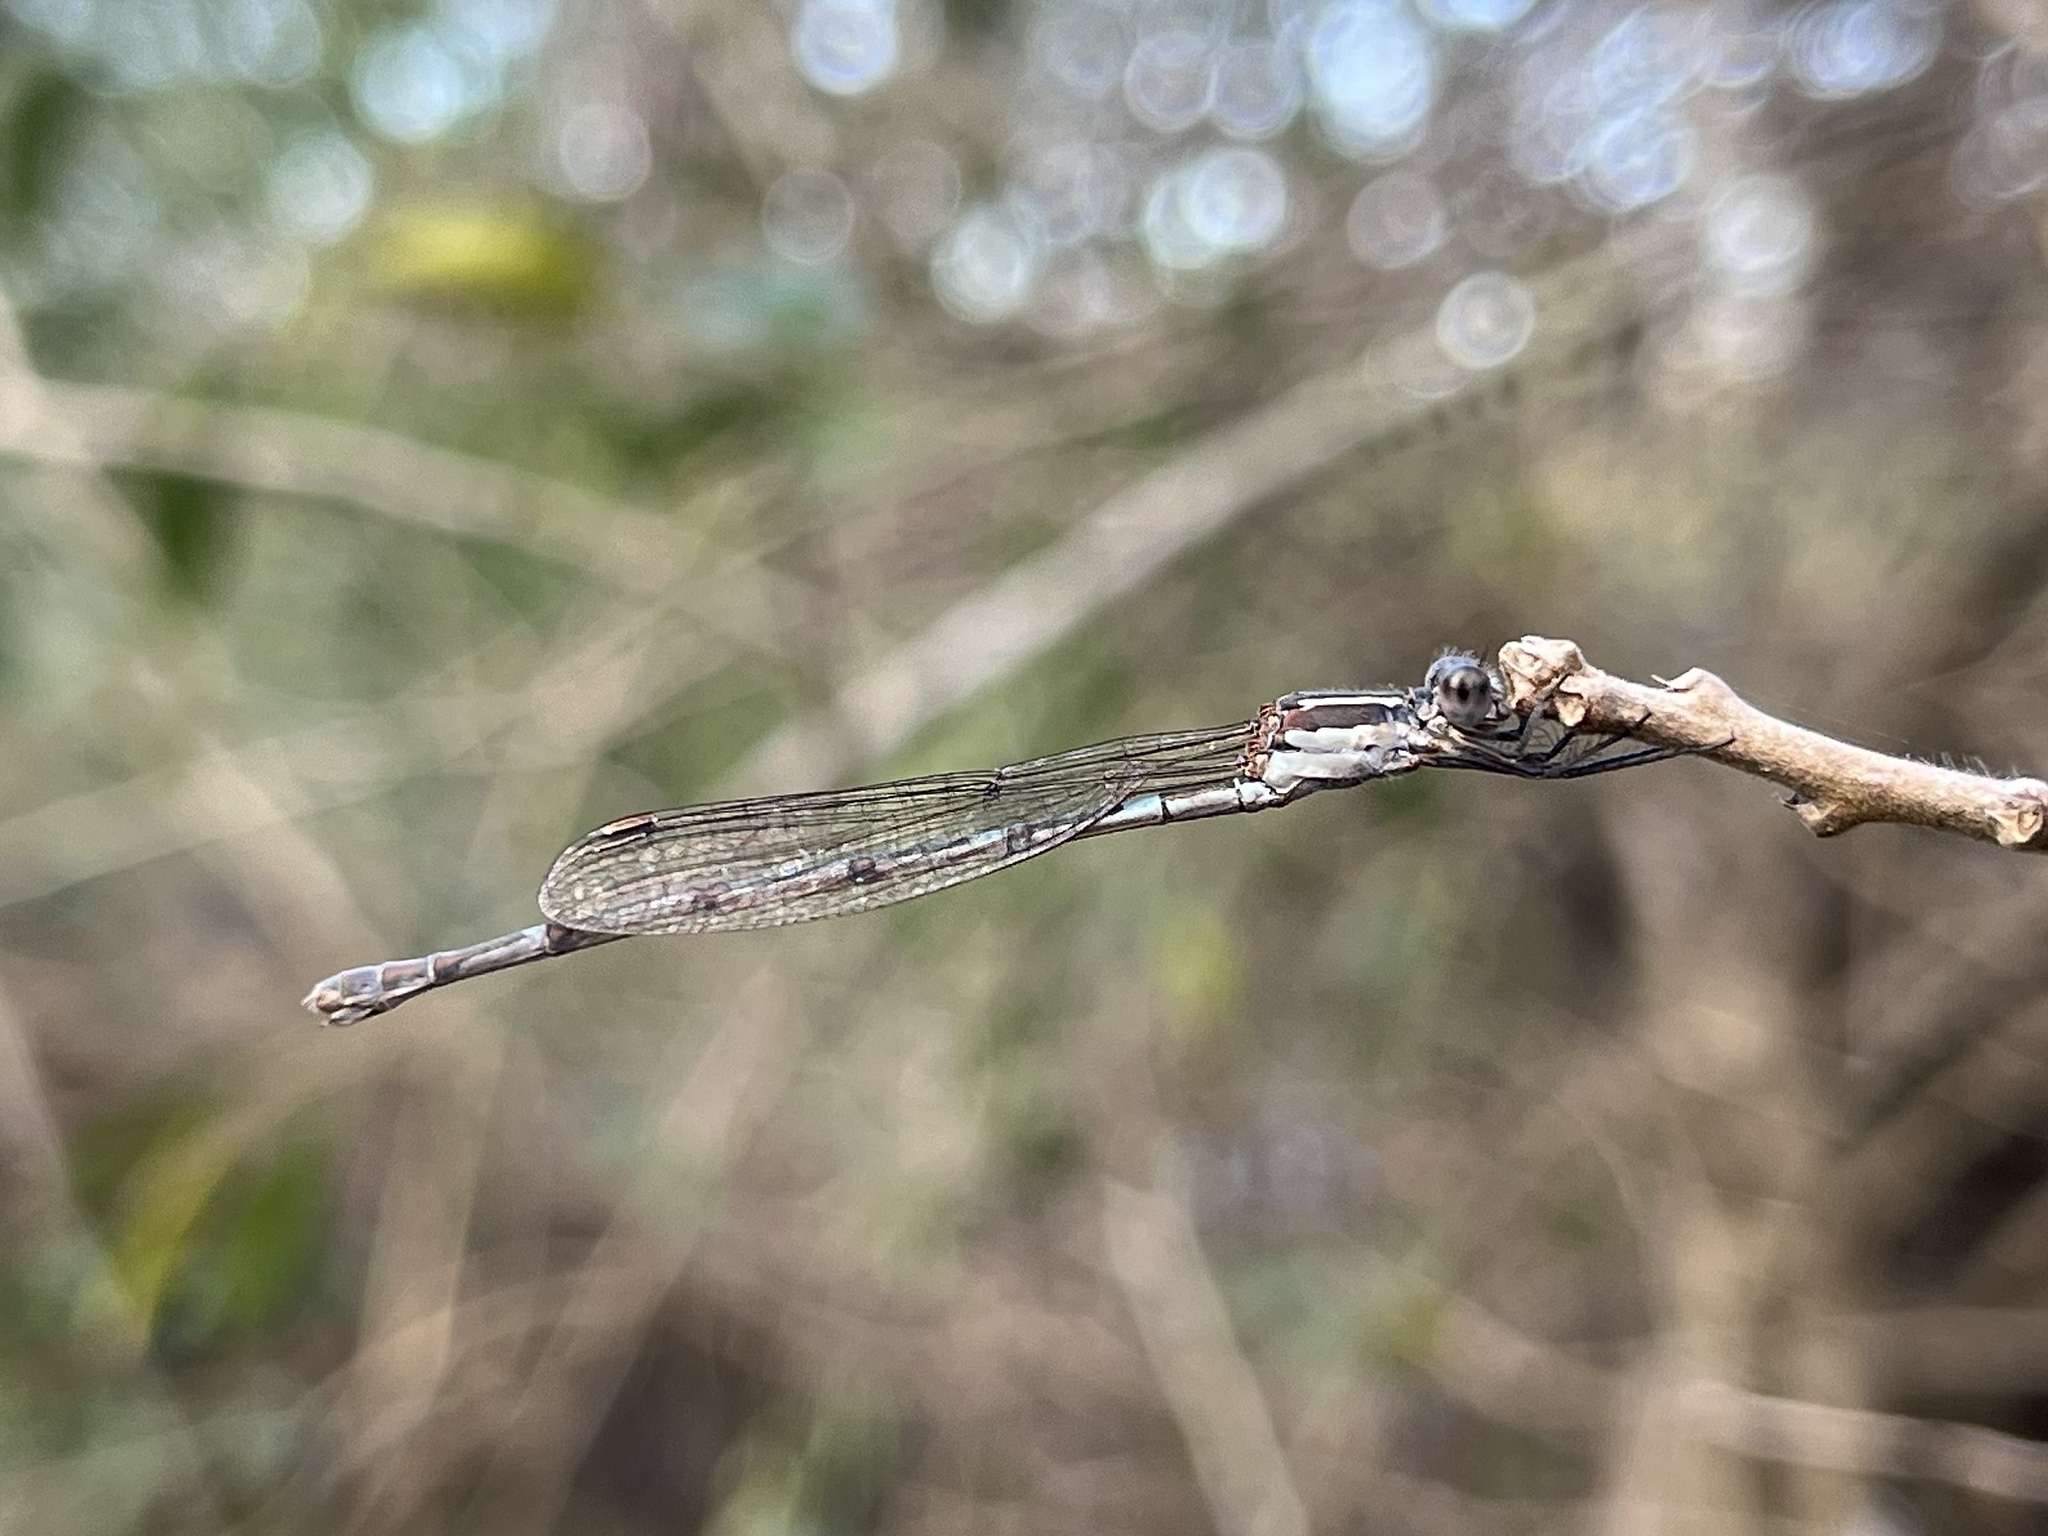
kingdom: Animalia
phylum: Arthropoda
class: Insecta
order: Odonata
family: Lestidae
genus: Austrolestes
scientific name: Austrolestes leda
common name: Wandering ringtail
